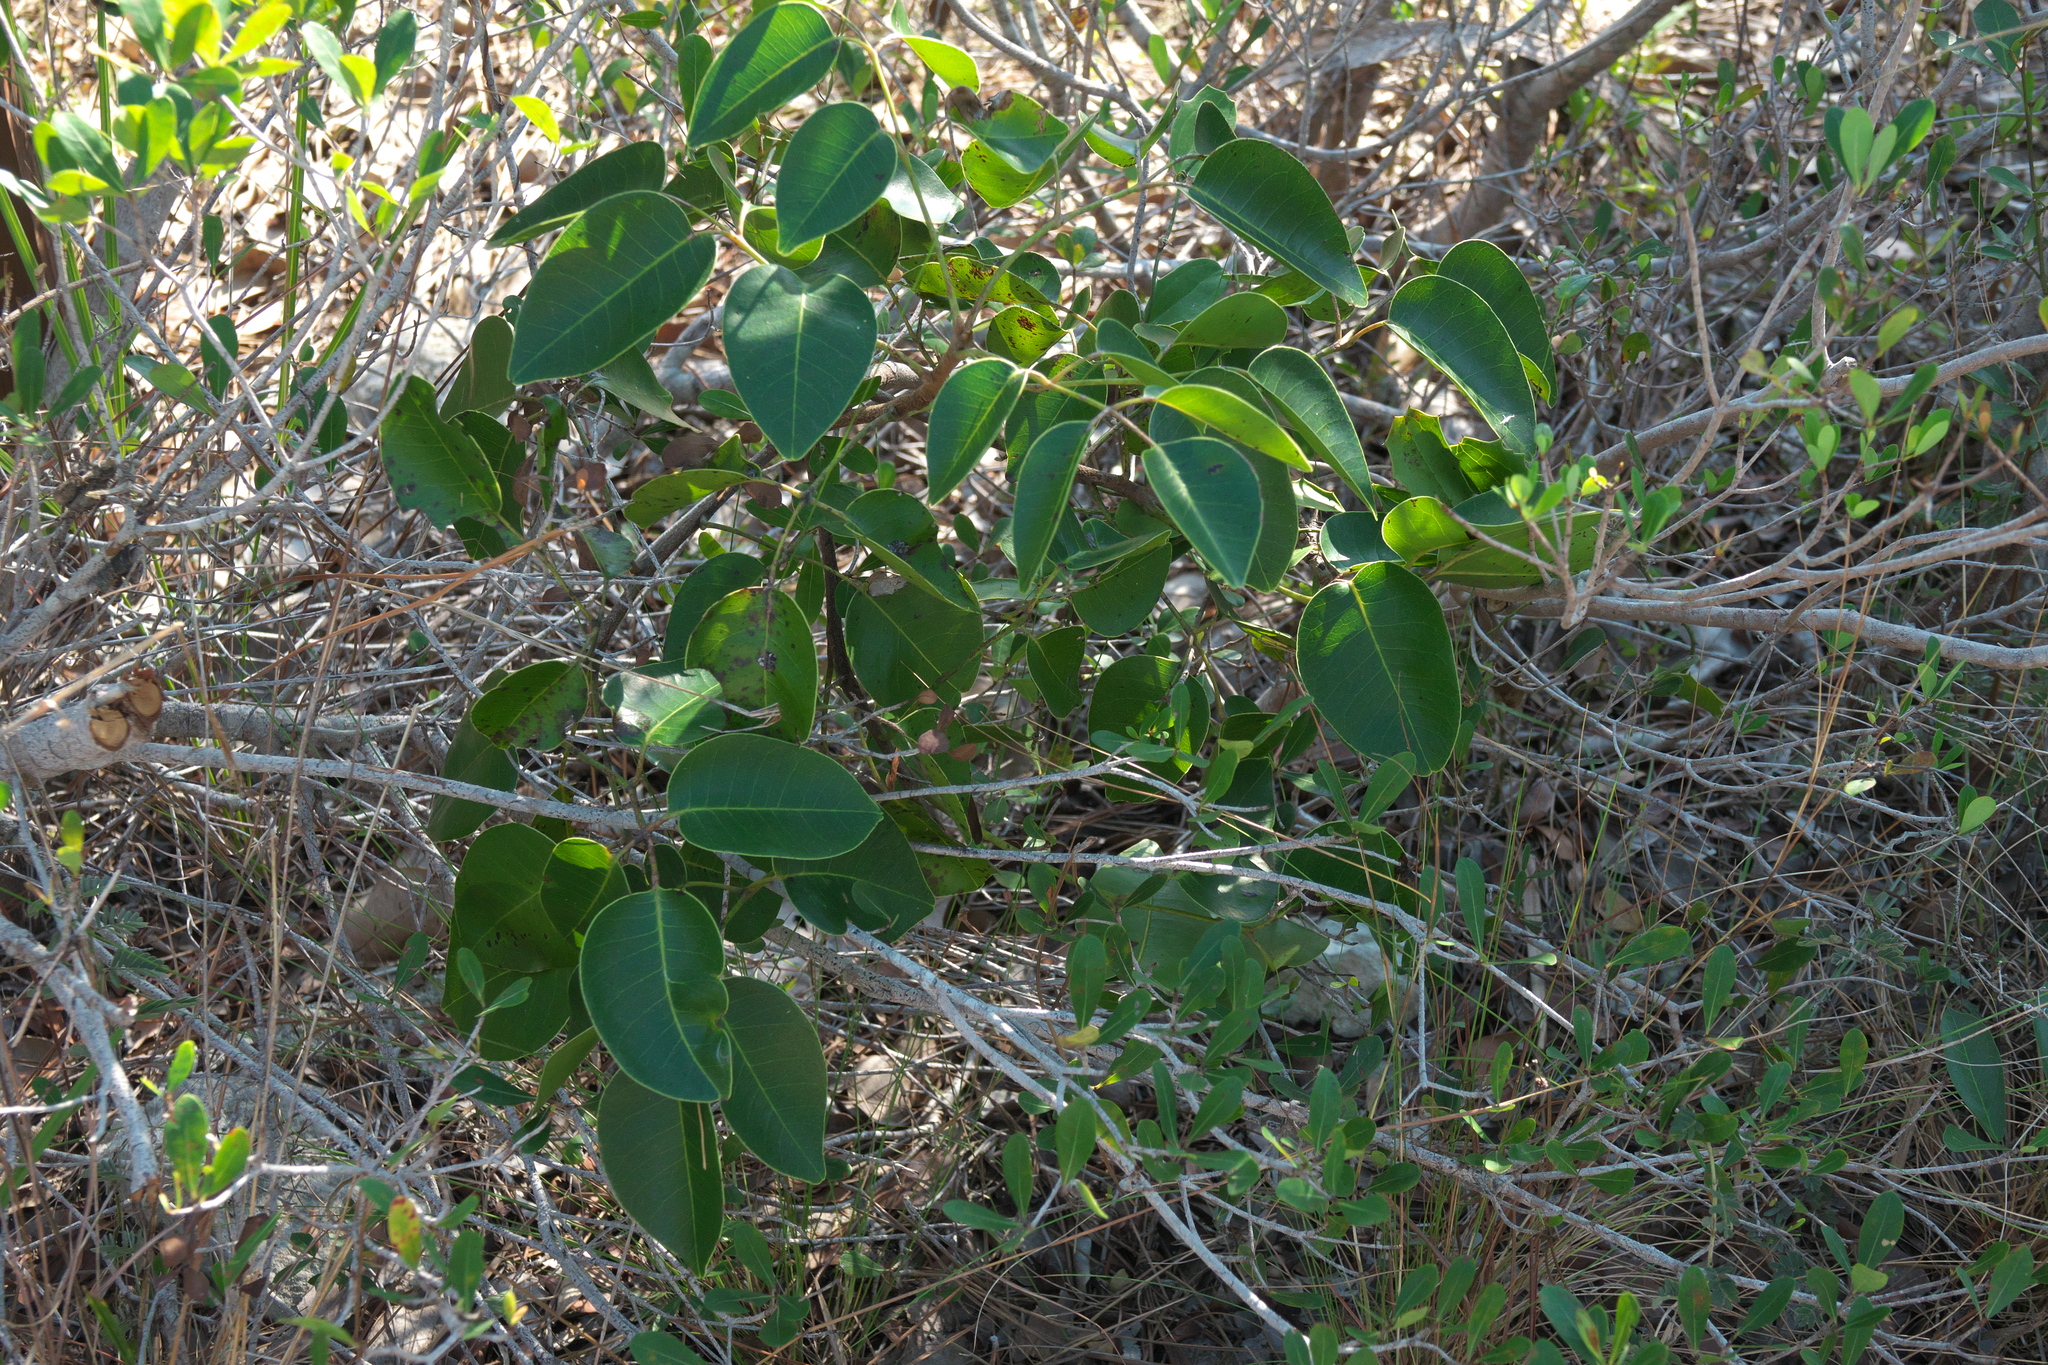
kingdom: Plantae
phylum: Tracheophyta
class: Magnoliopsida
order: Sapindales
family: Anacardiaceae
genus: Metopium
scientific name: Metopium toxiferum
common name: Florida poisontree
